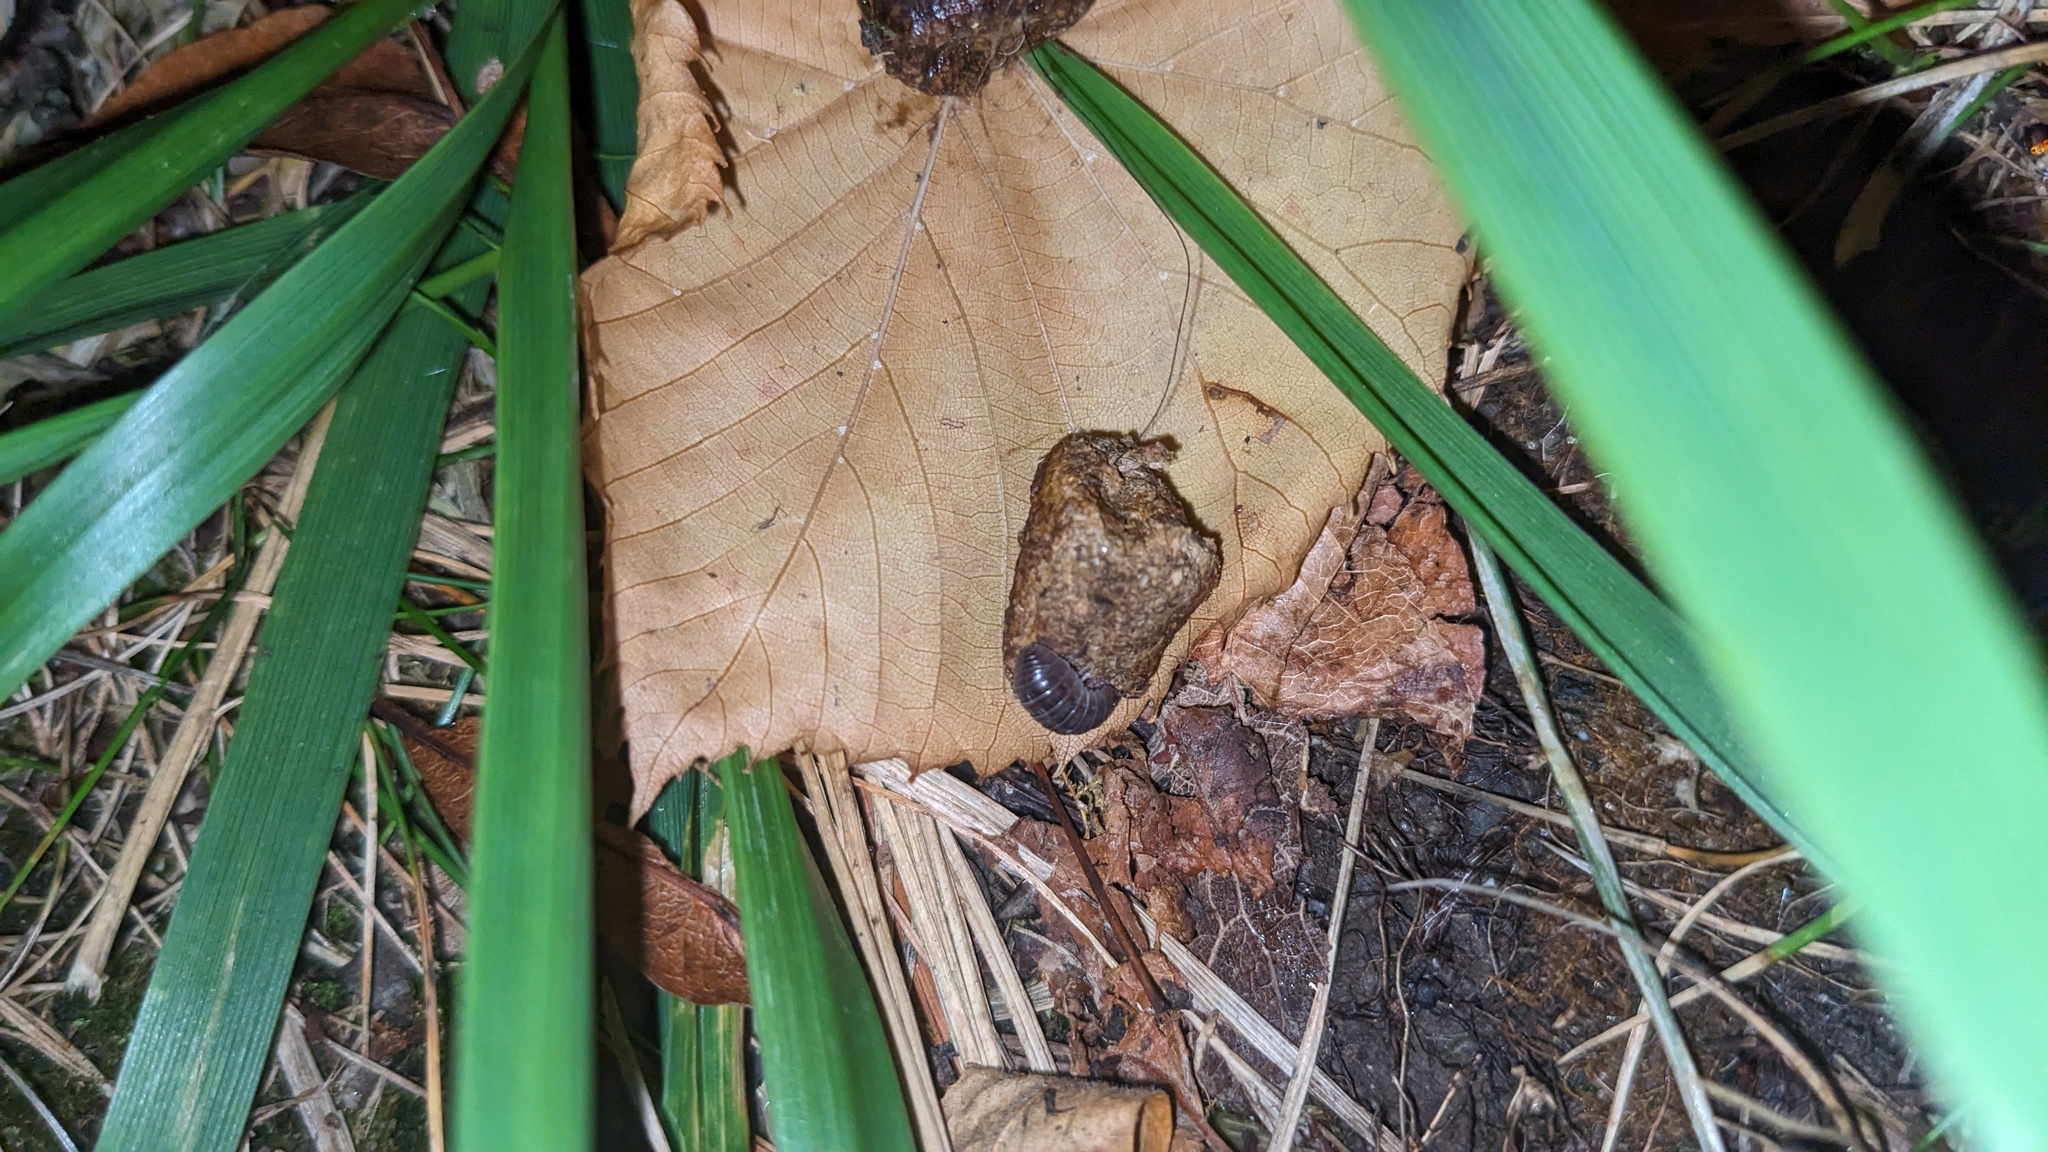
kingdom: Animalia
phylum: Arthropoda
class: Malacostraca
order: Isopoda
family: Armadillidiidae
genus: Armadillidium
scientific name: Armadillidium vulgare
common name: Common pill woodlouse
